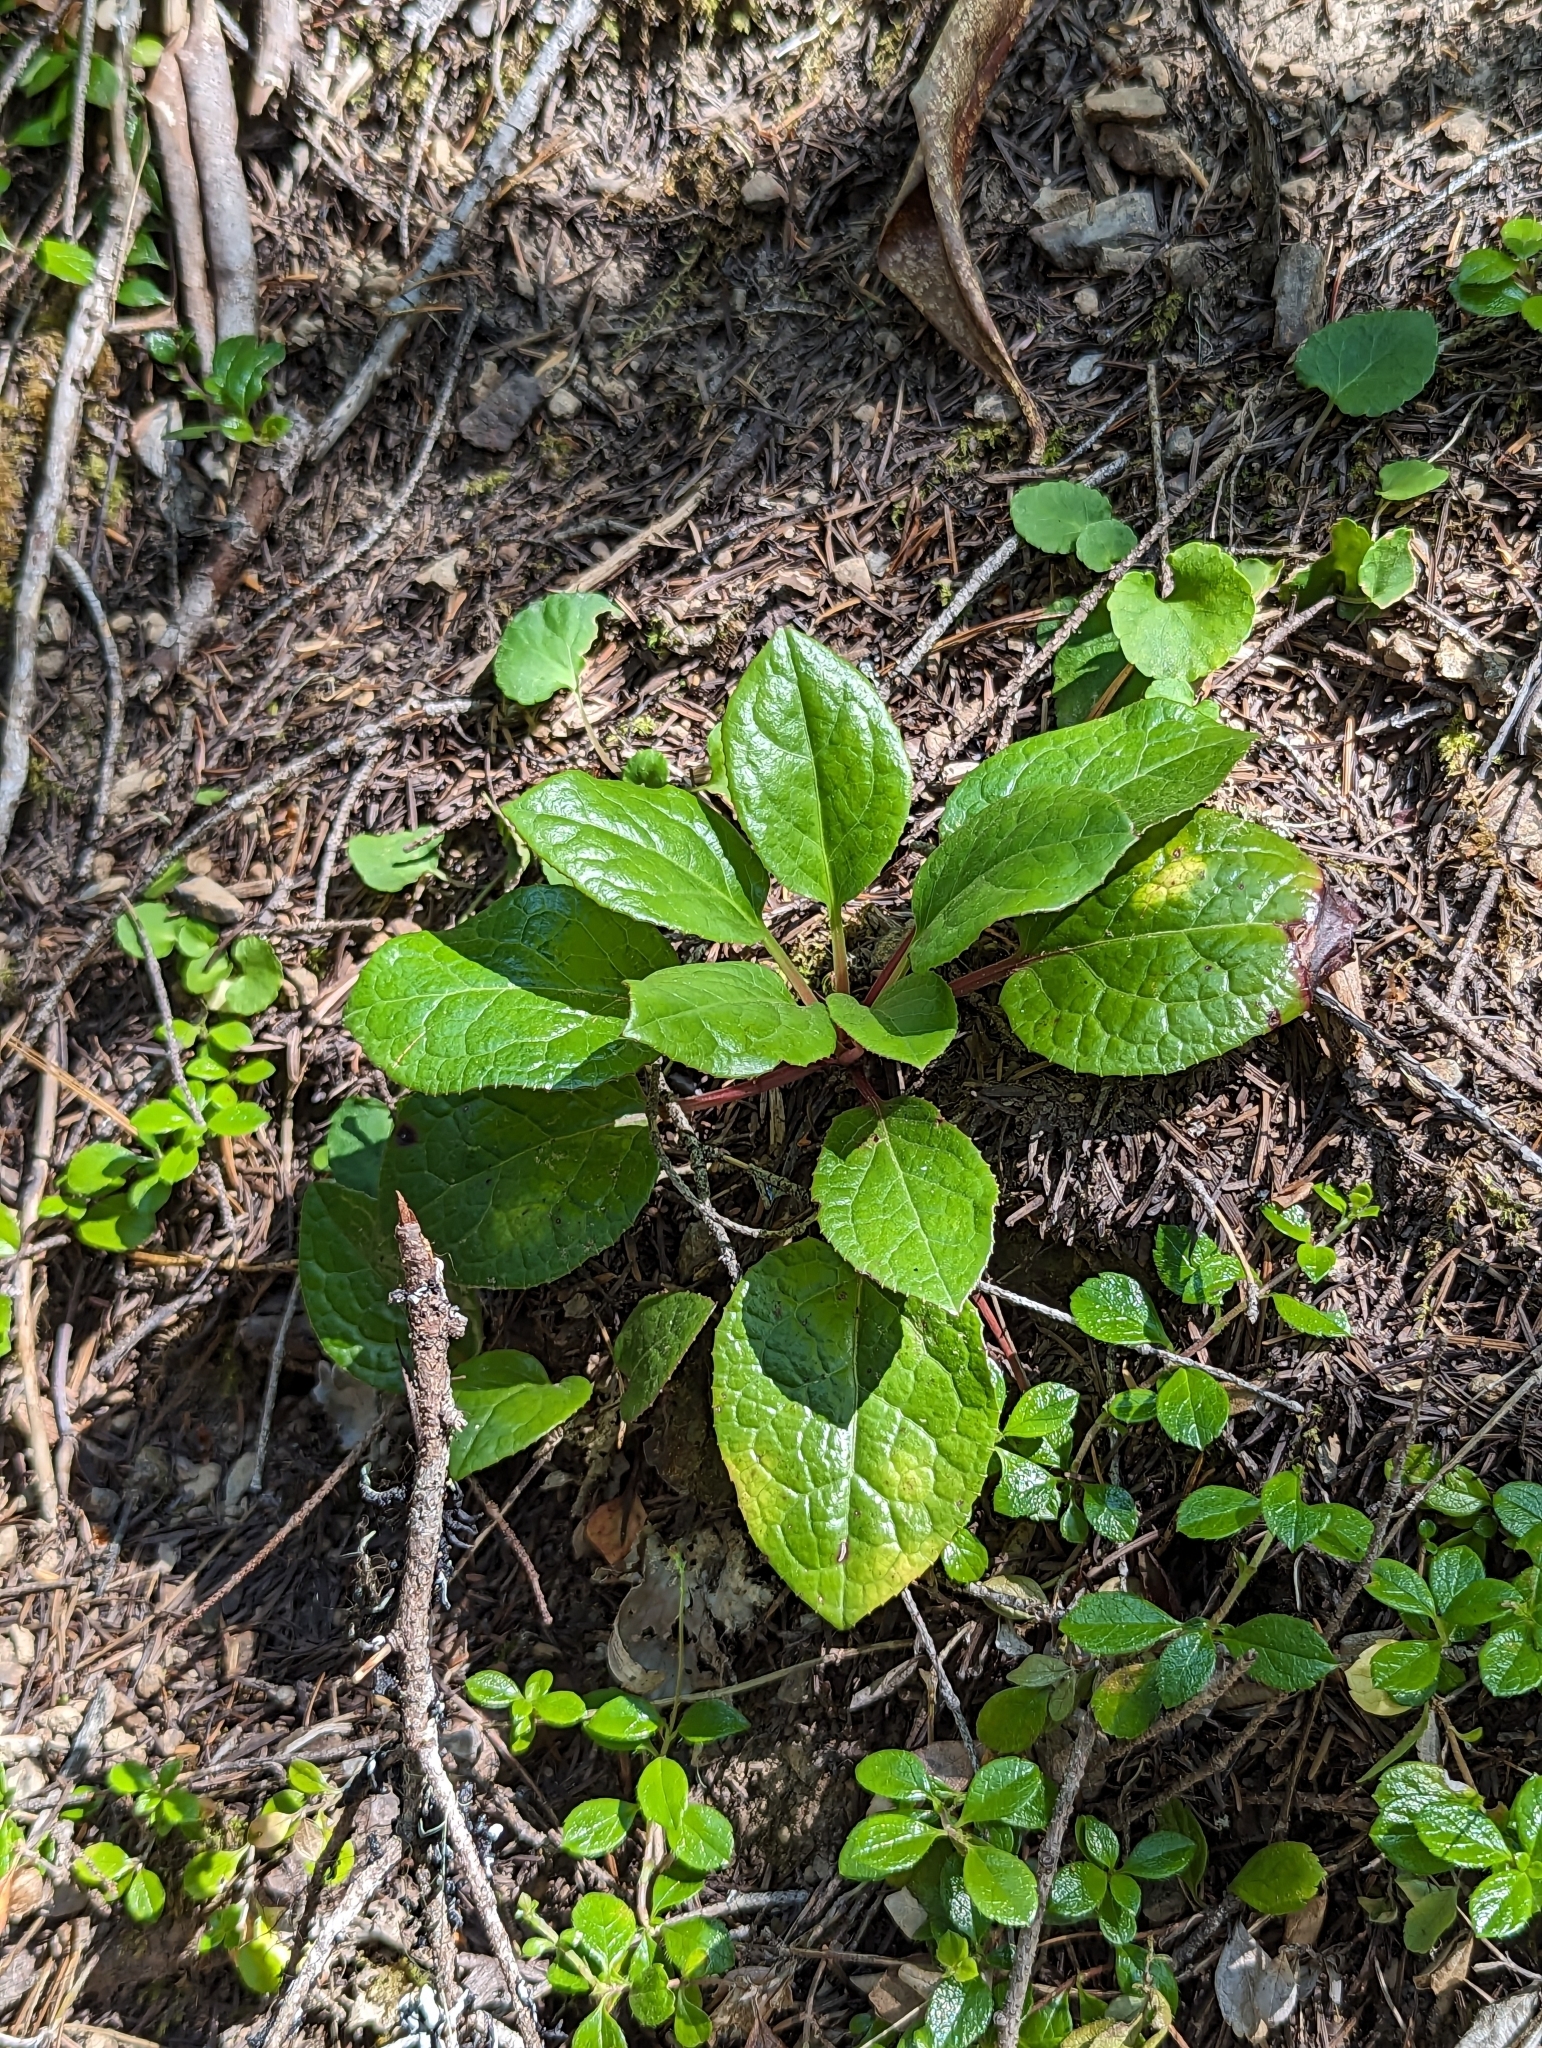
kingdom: Plantae
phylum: Tracheophyta
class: Magnoliopsida
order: Ericales
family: Ericaceae
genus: Pyrola
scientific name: Pyrola asarifolia
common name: Bog wintergreen
